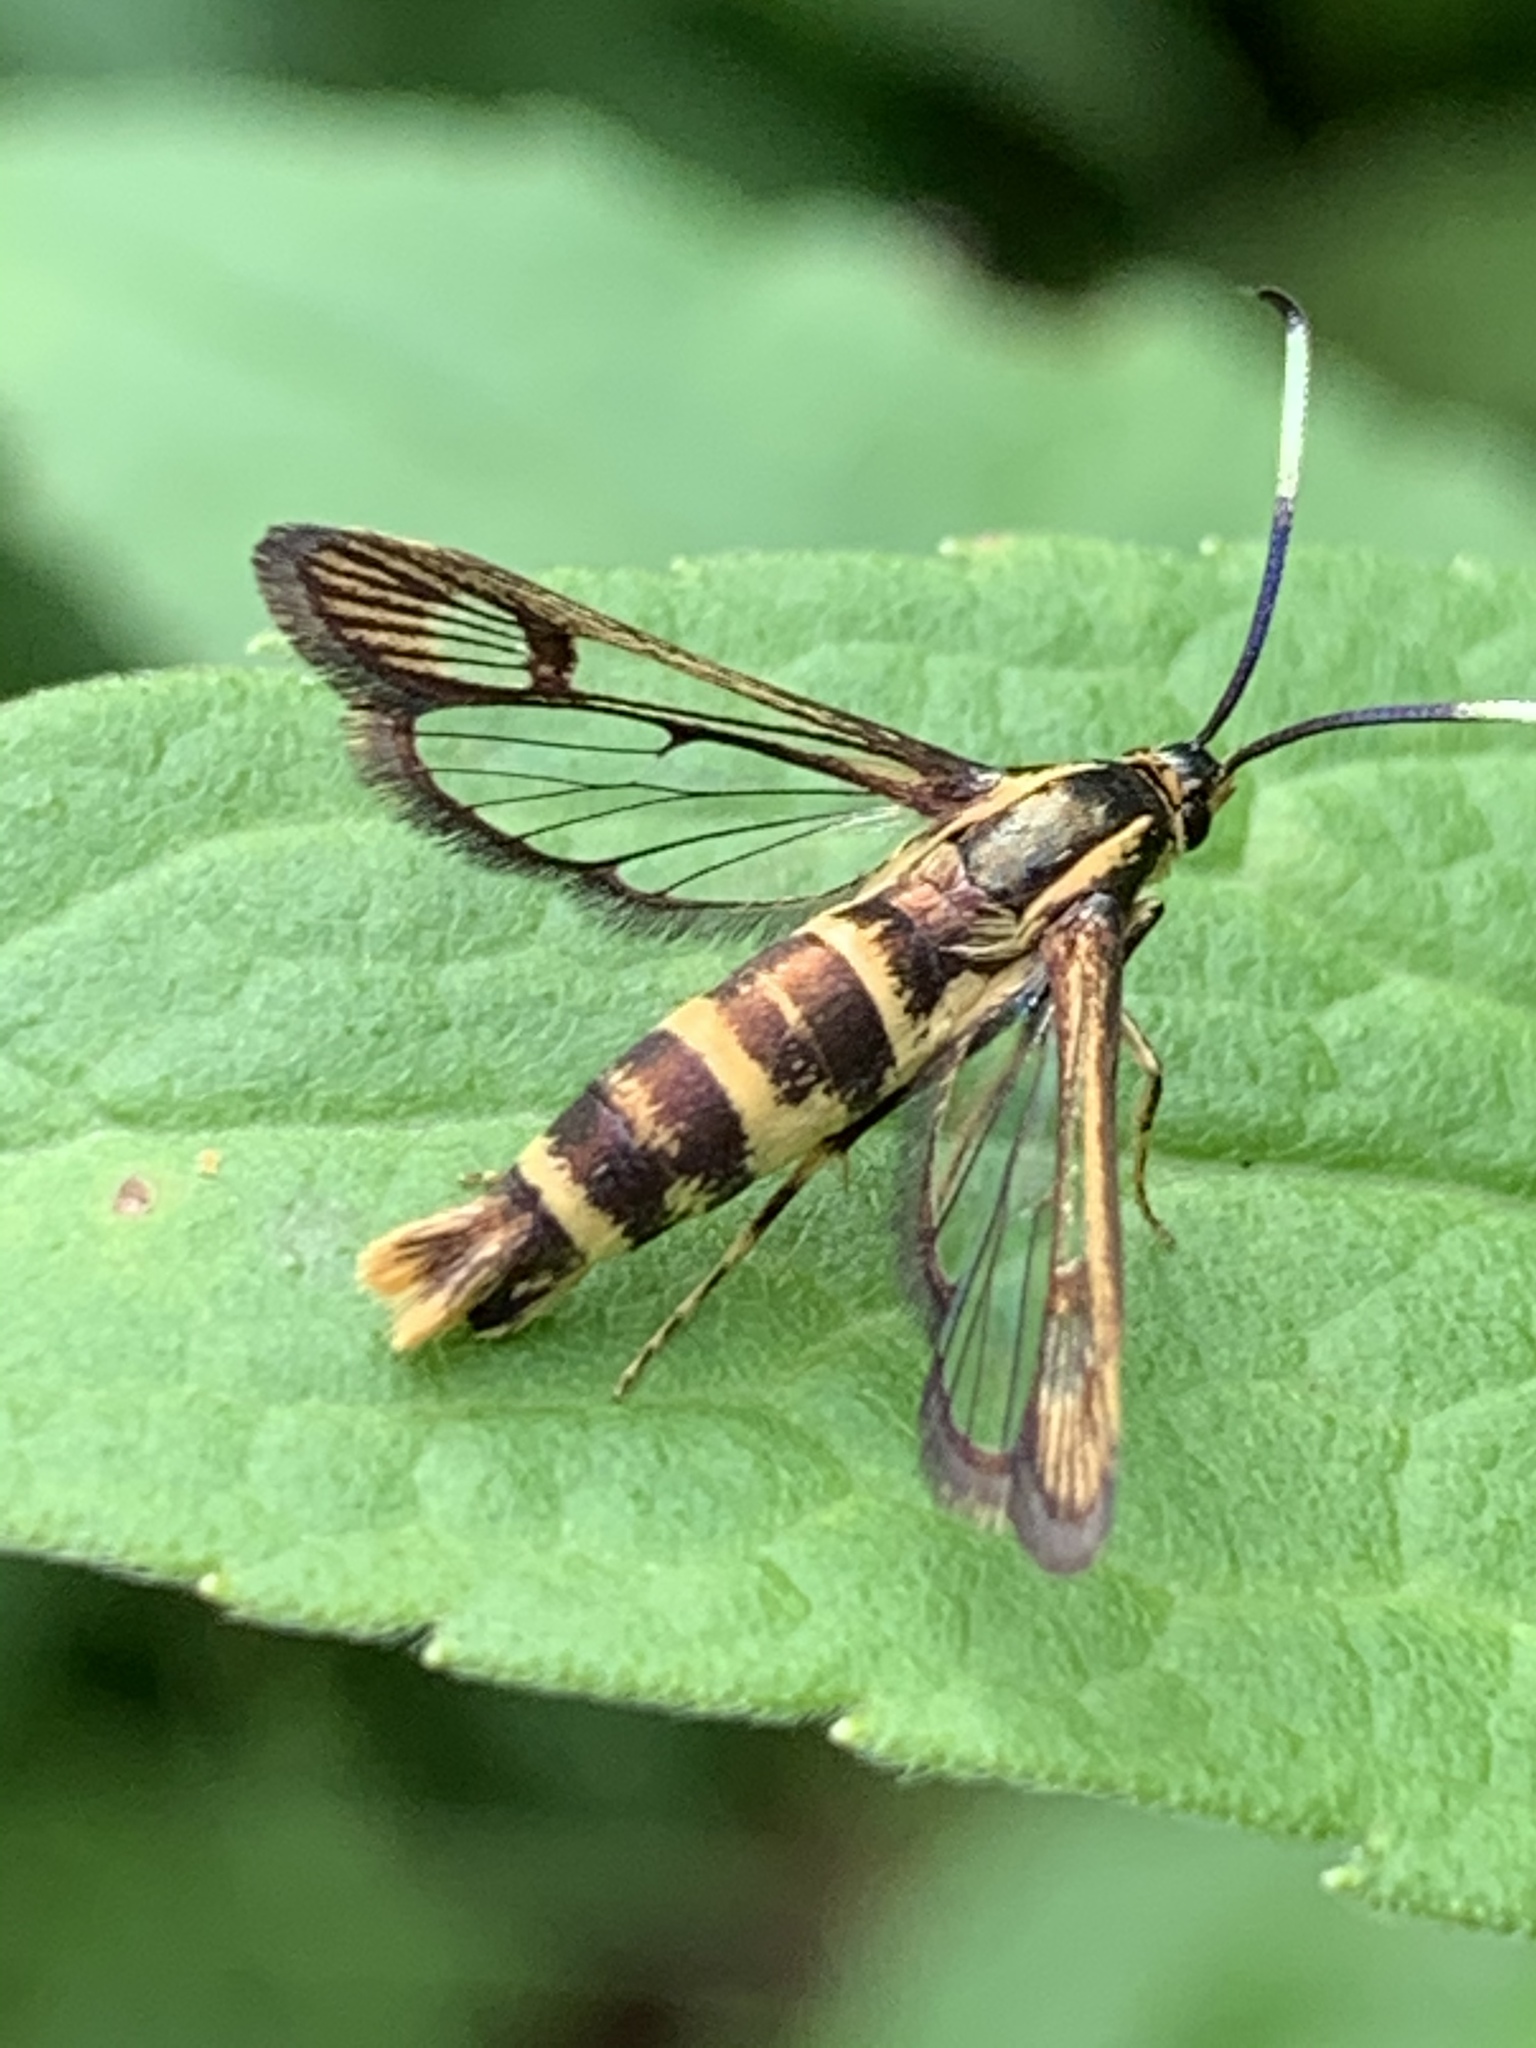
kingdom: Animalia
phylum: Arthropoda
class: Insecta
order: Lepidoptera
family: Sesiidae
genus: Carmenta
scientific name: Carmenta bassiformis
